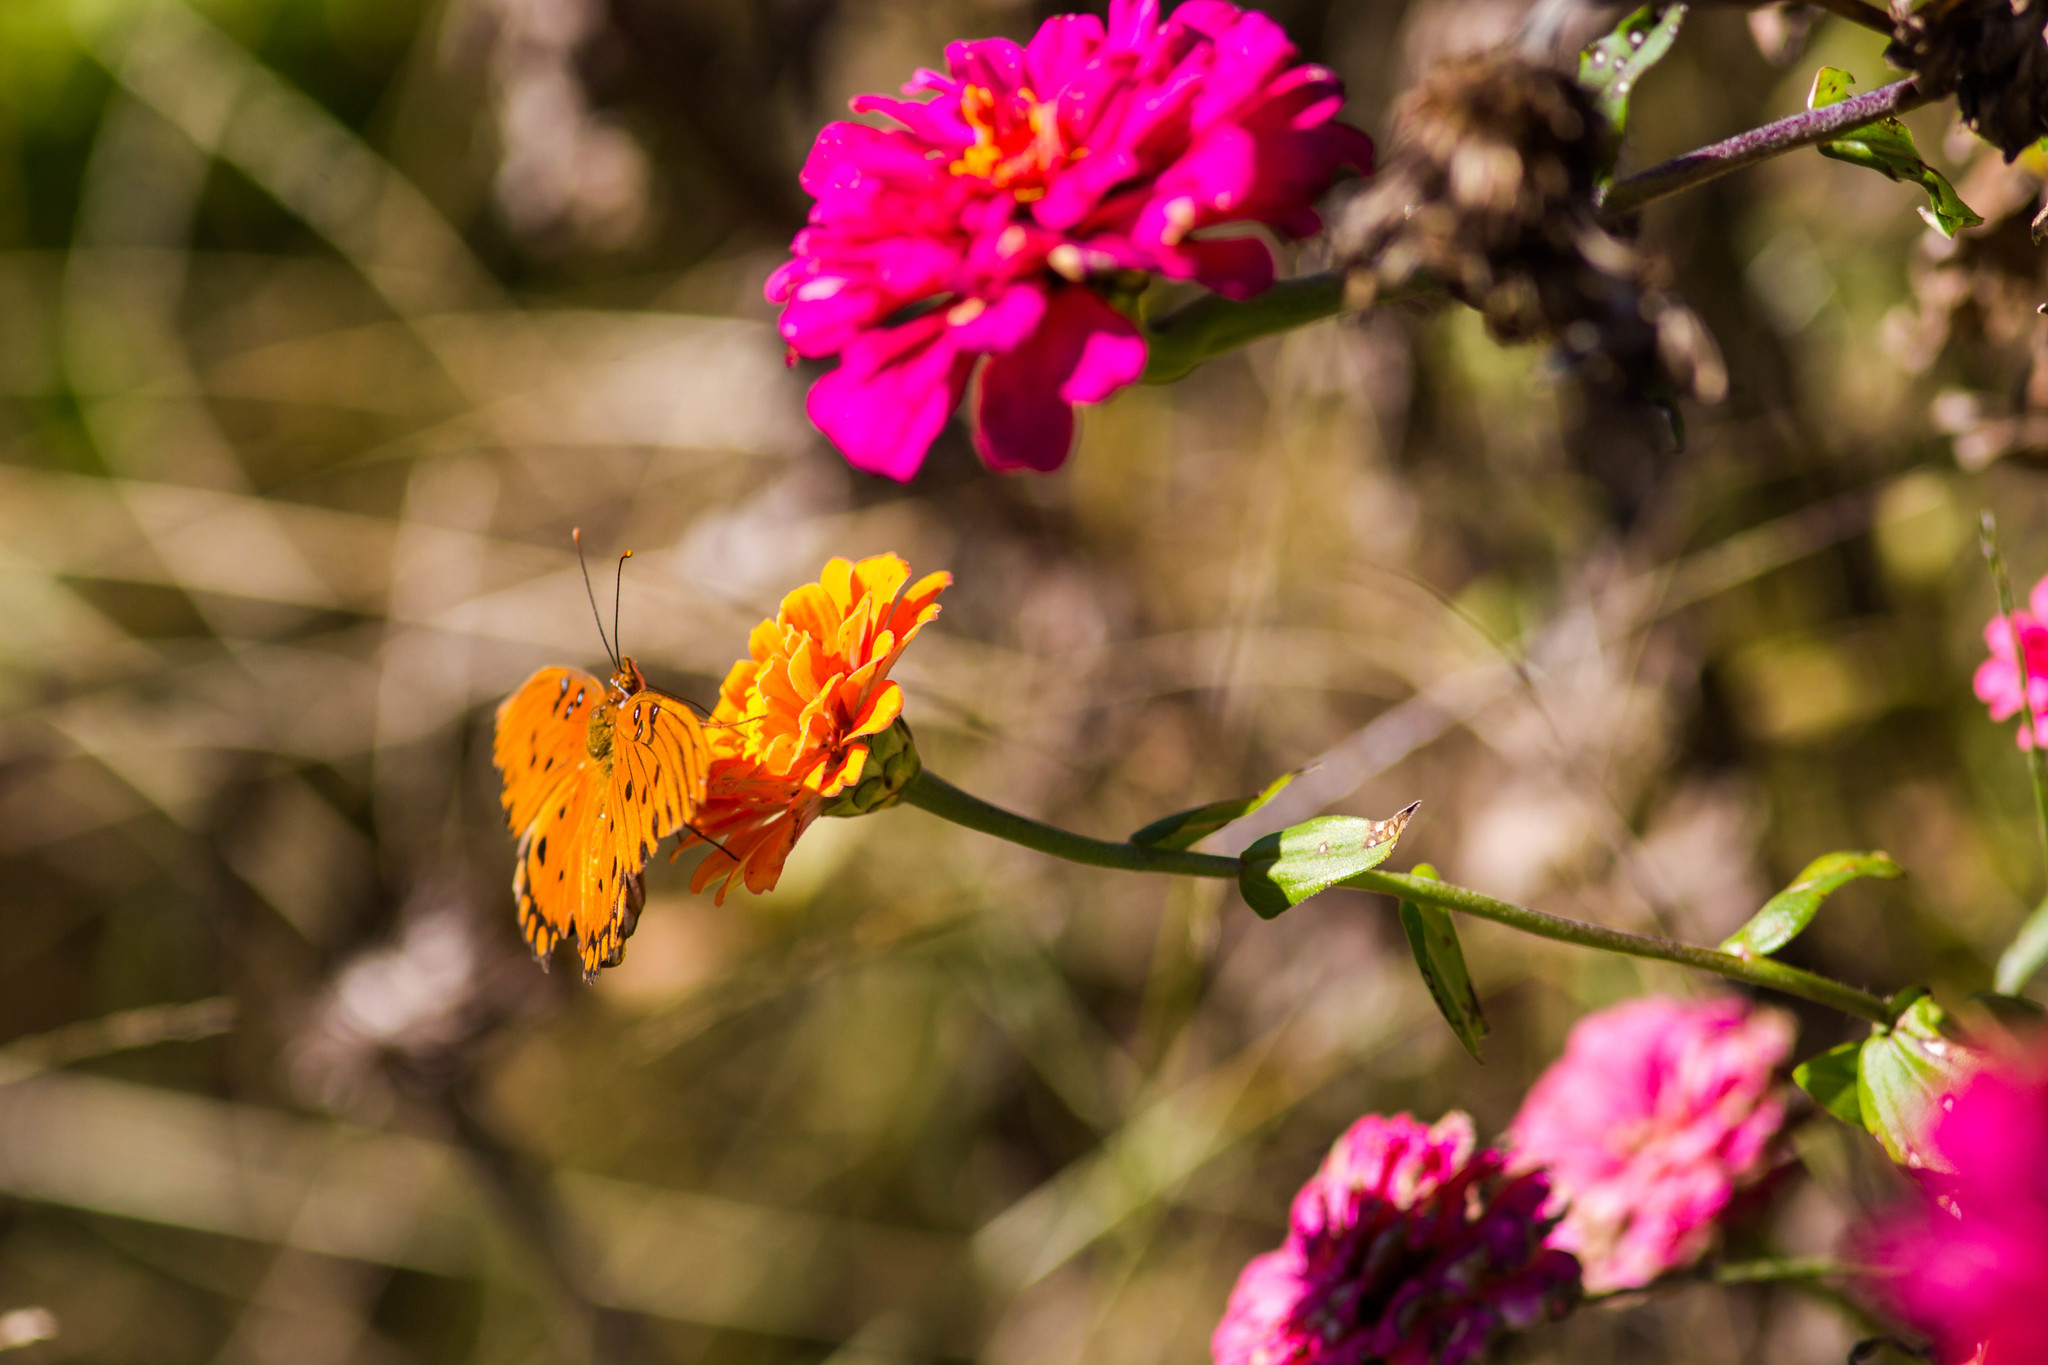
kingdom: Animalia
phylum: Arthropoda
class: Insecta
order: Lepidoptera
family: Nymphalidae
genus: Dione
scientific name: Dione vanillae
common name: Gulf fritillary
